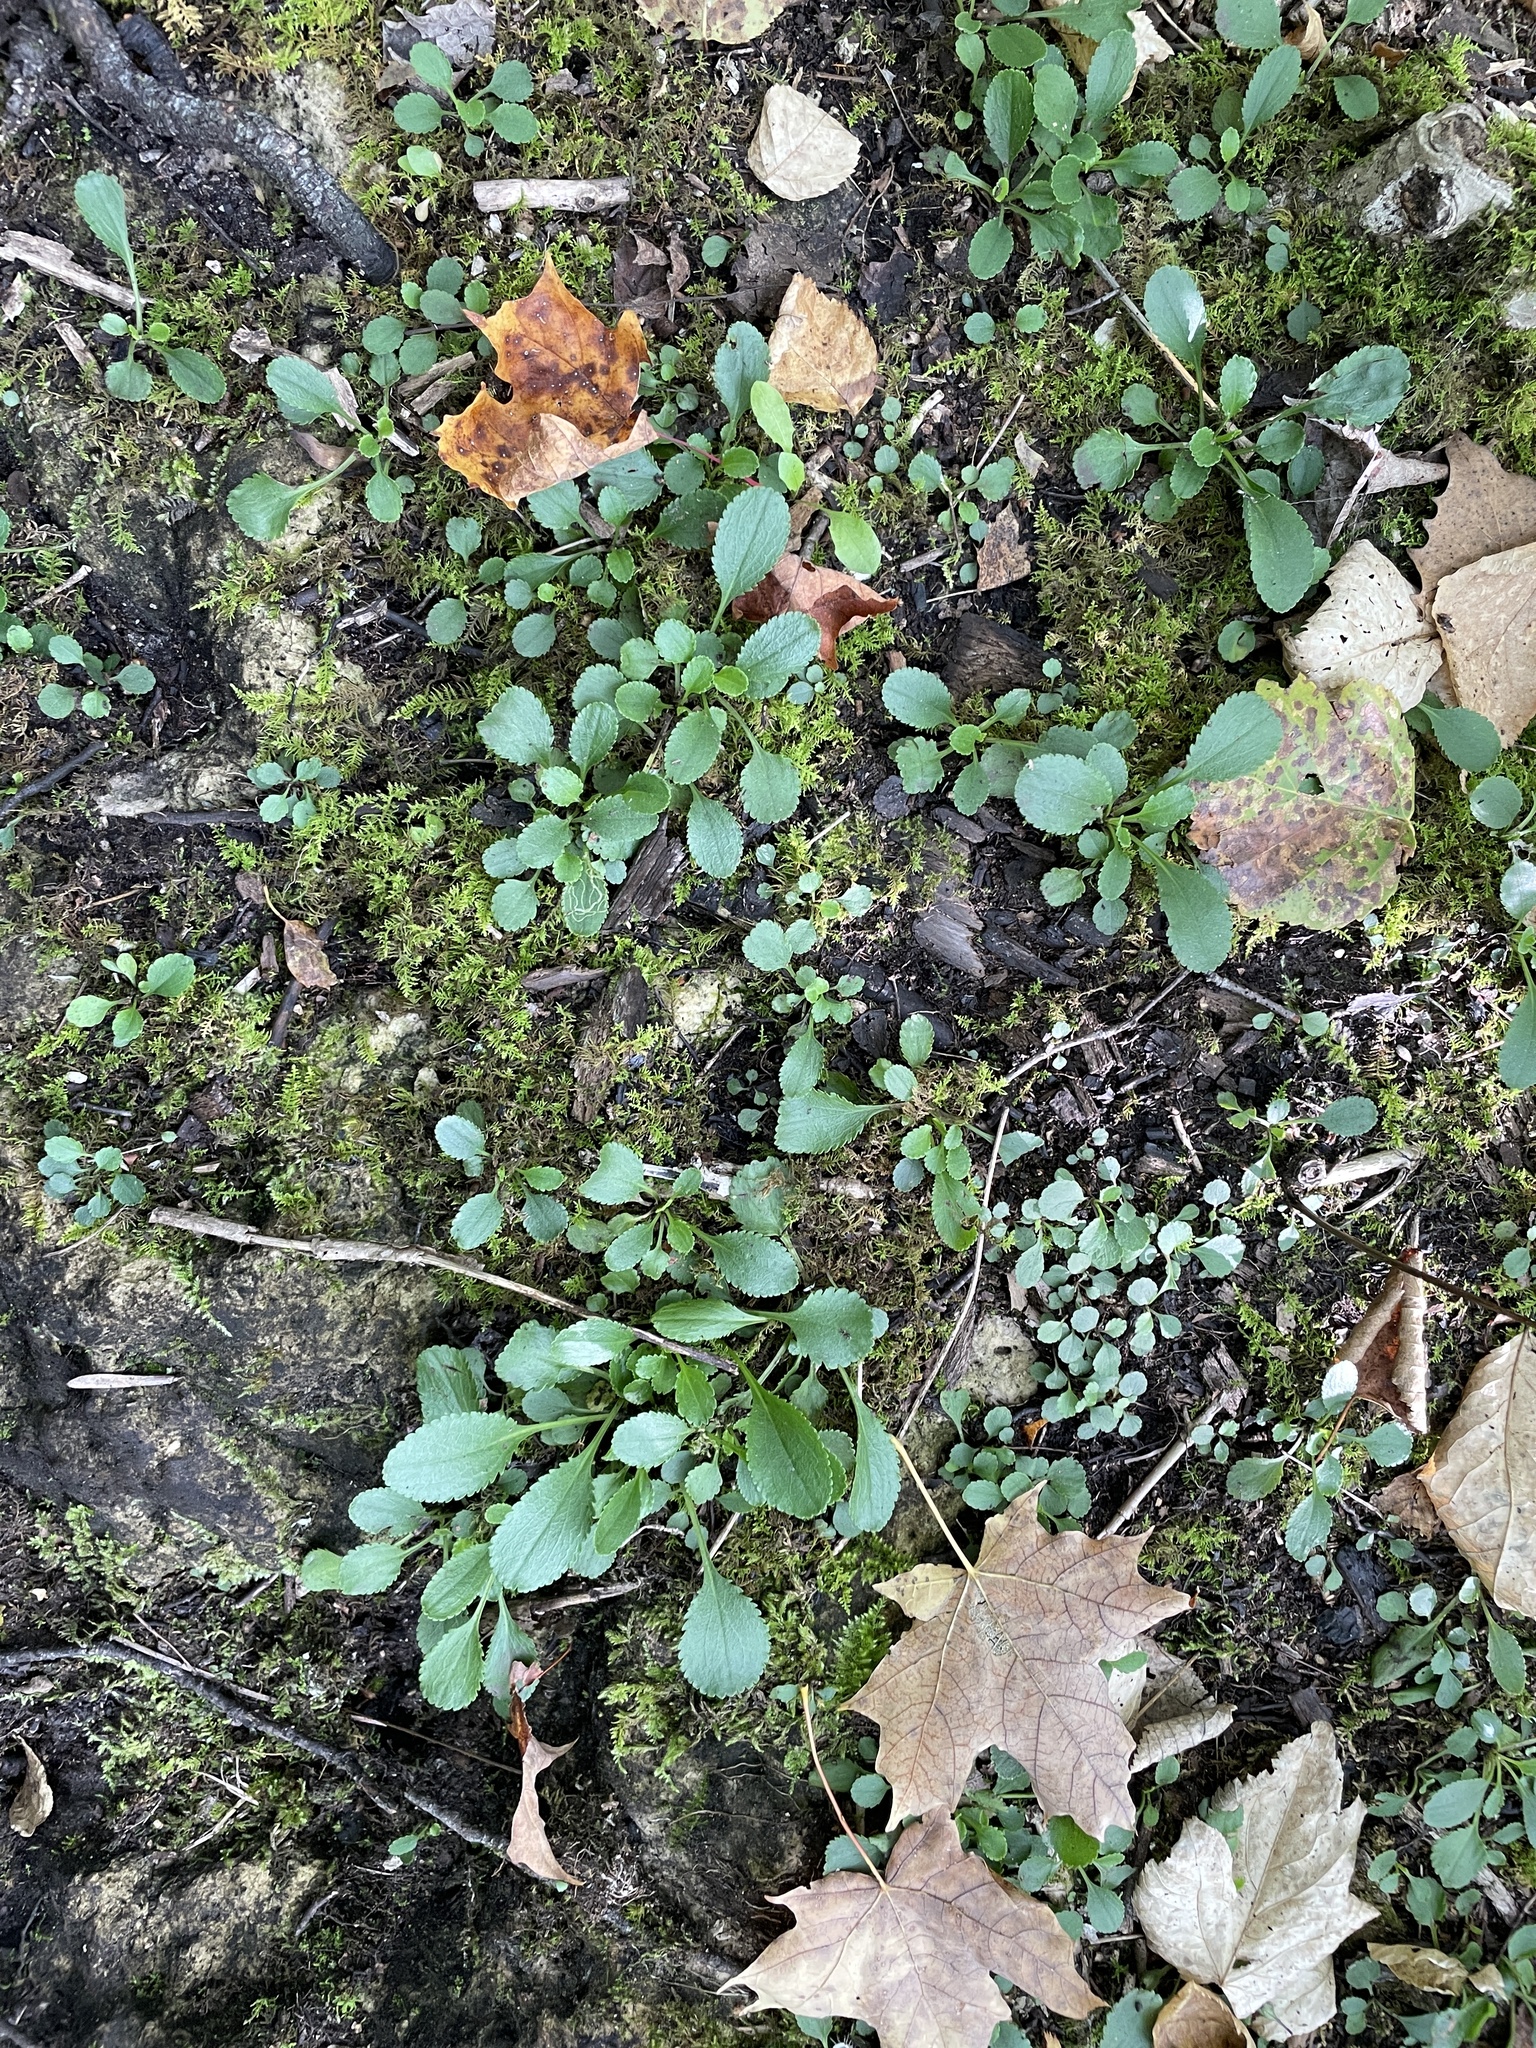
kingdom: Plantae
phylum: Tracheophyta
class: Magnoliopsida
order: Asterales
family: Asteraceae
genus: Packera
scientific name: Packera obovata
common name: Round-leaf ragwort
